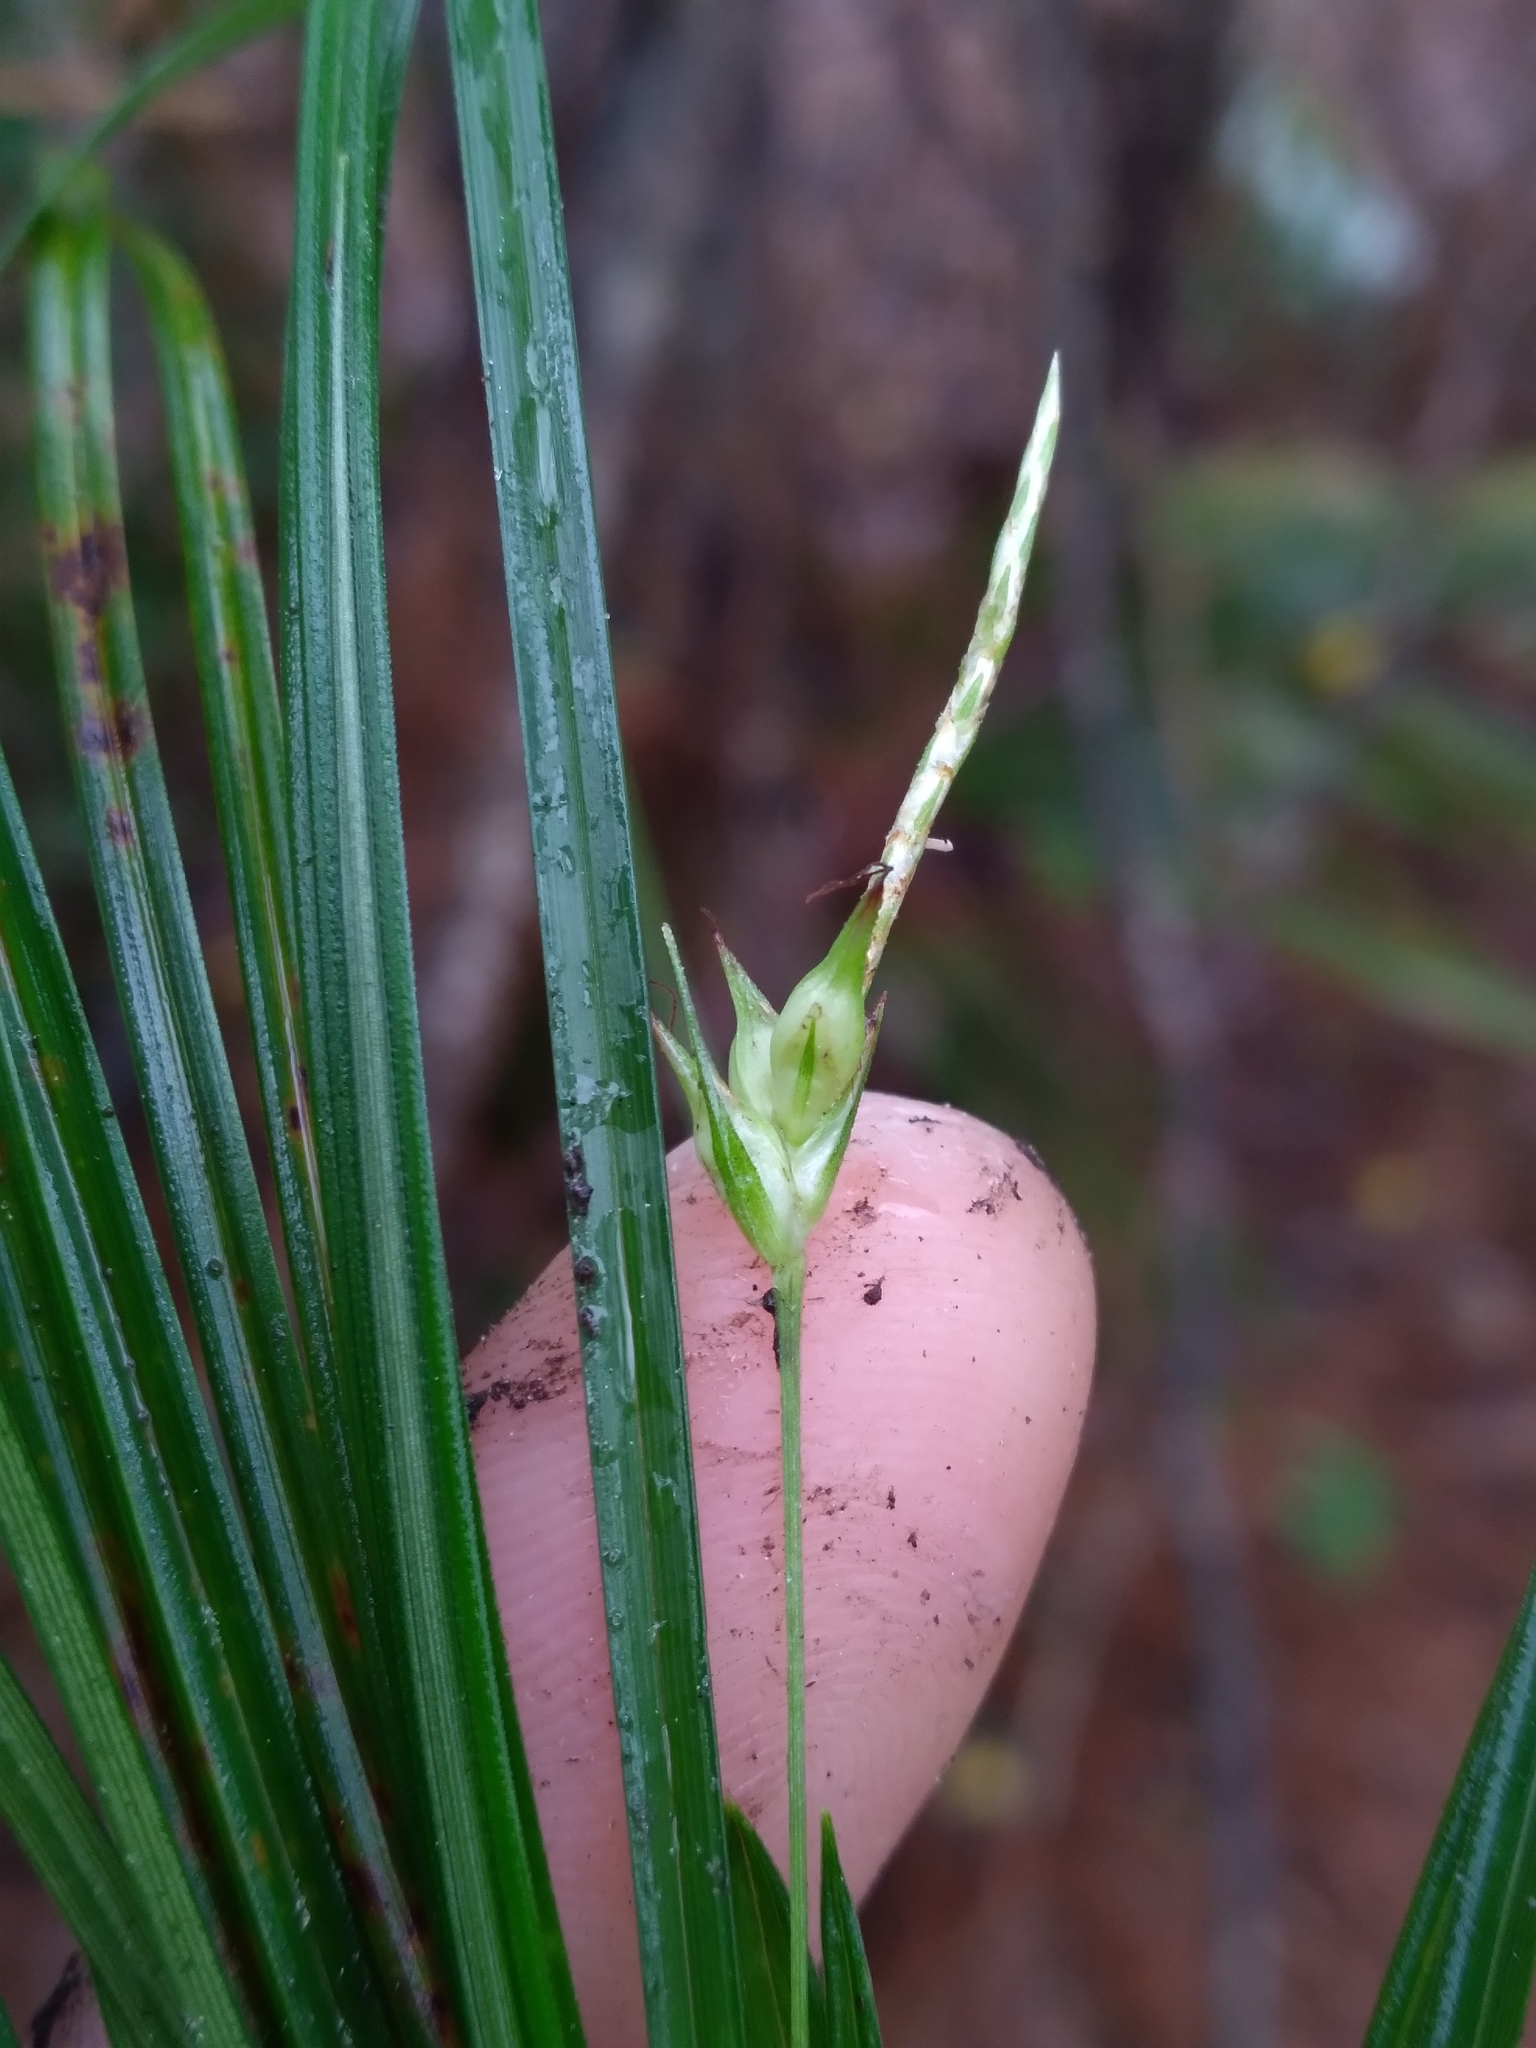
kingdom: Plantae
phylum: Tracheophyta
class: Liliopsida
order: Poales
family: Cyperaceae
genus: Carex
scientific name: Carex basiantha
